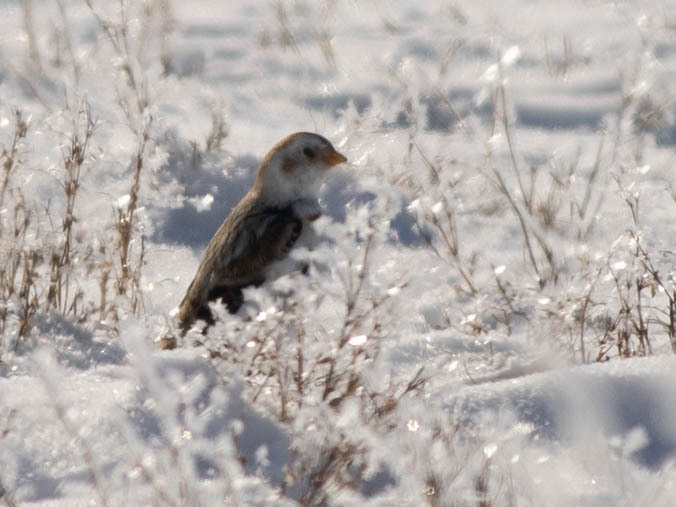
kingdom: Animalia
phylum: Chordata
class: Aves
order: Passeriformes
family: Calcariidae
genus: Plectrophenax
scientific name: Plectrophenax nivalis
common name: Snow bunting
